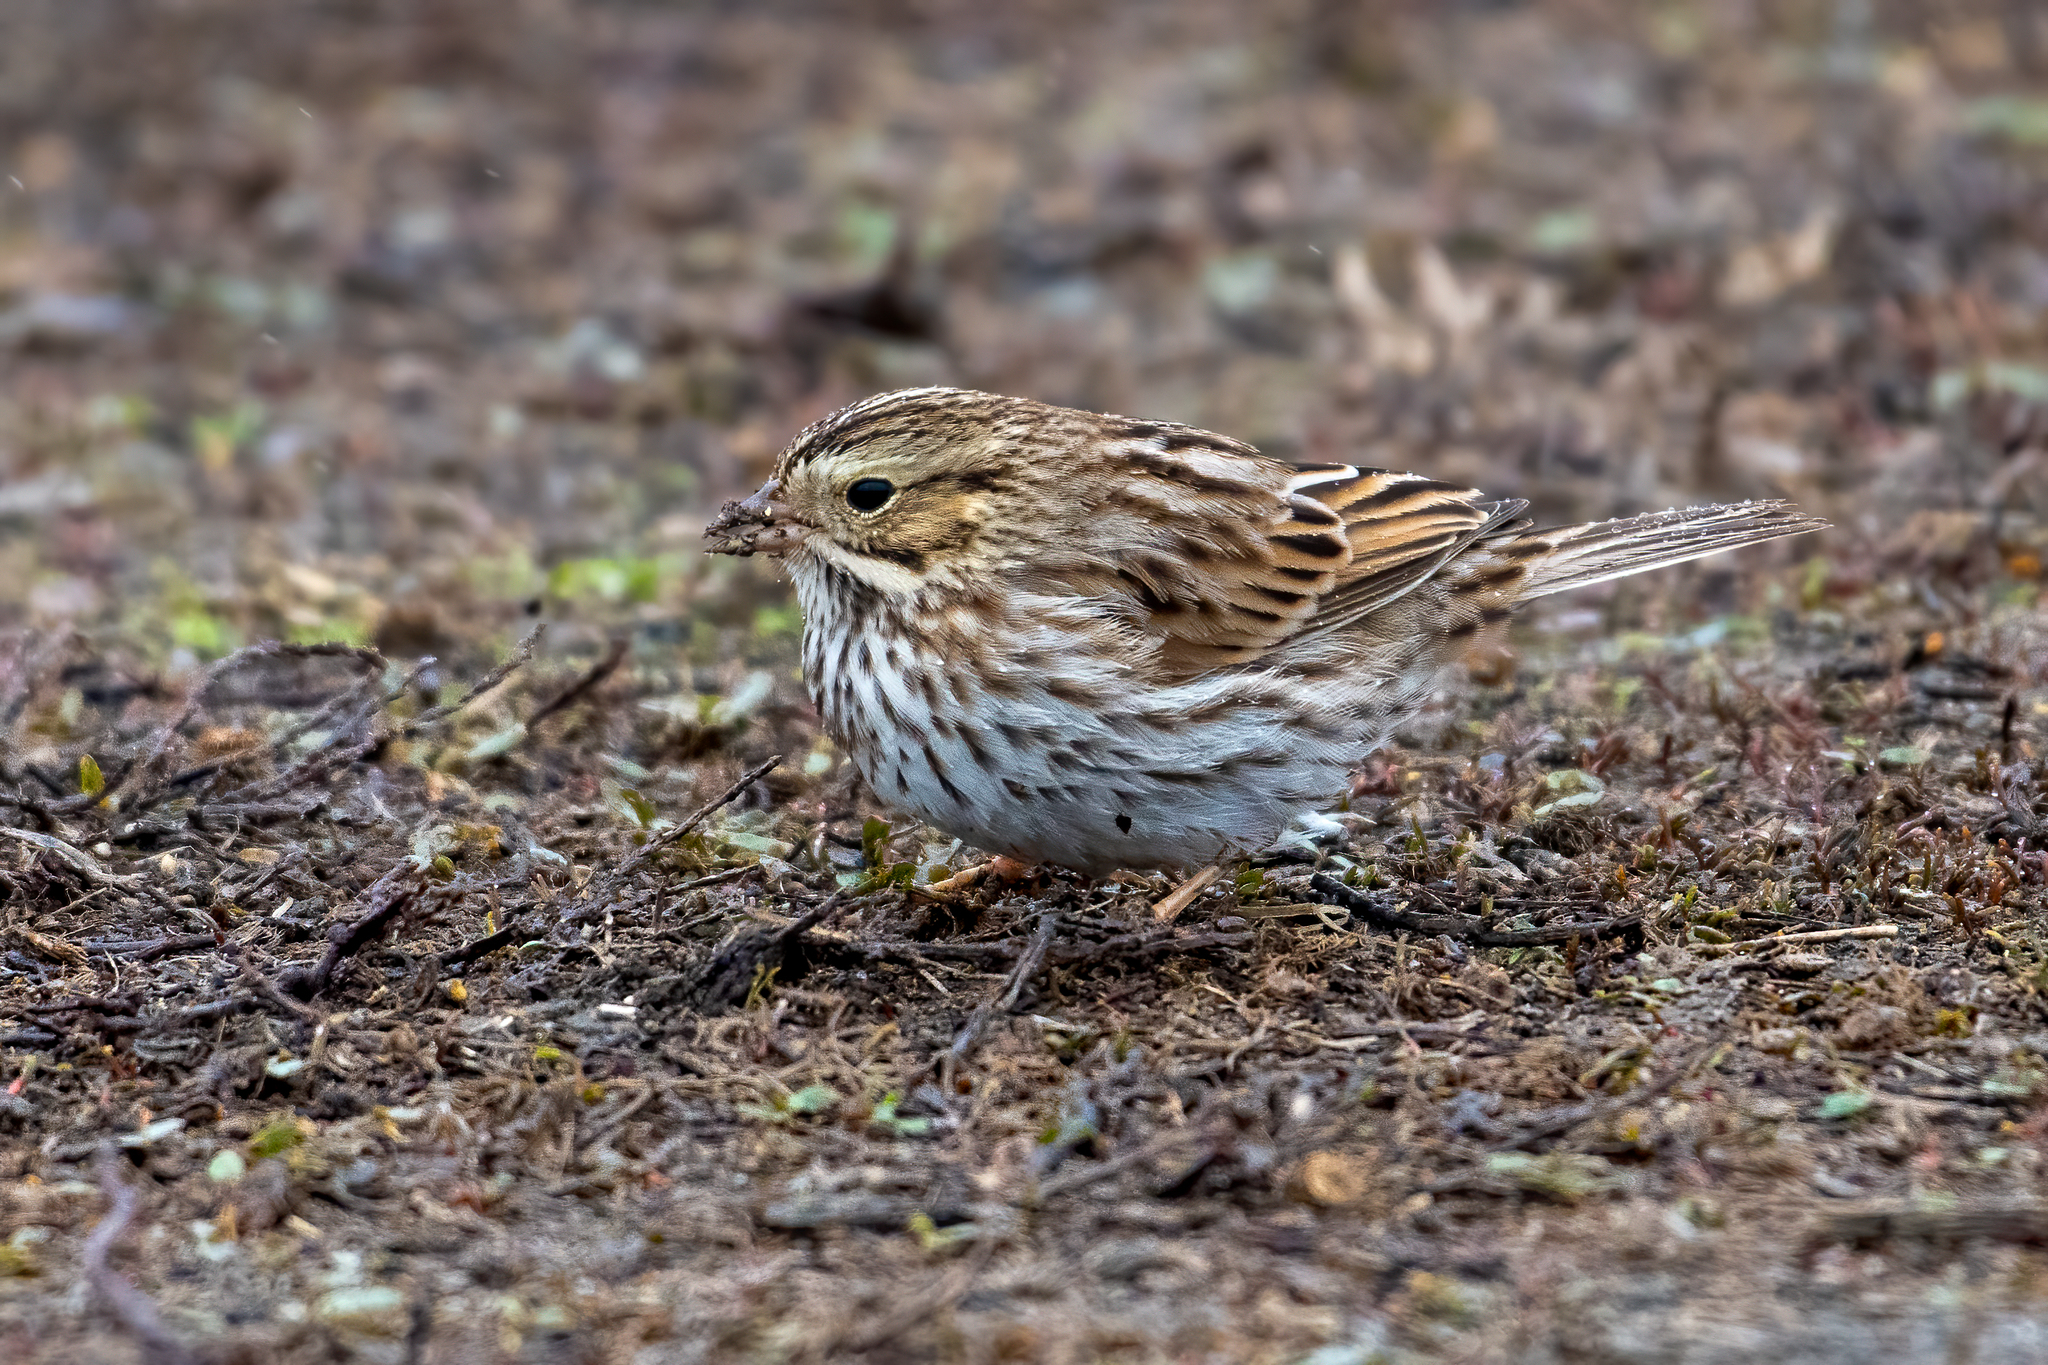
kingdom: Animalia
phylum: Chordata
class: Aves
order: Passeriformes
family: Passerellidae
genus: Passerculus
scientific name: Passerculus sandwichensis
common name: Savannah sparrow
